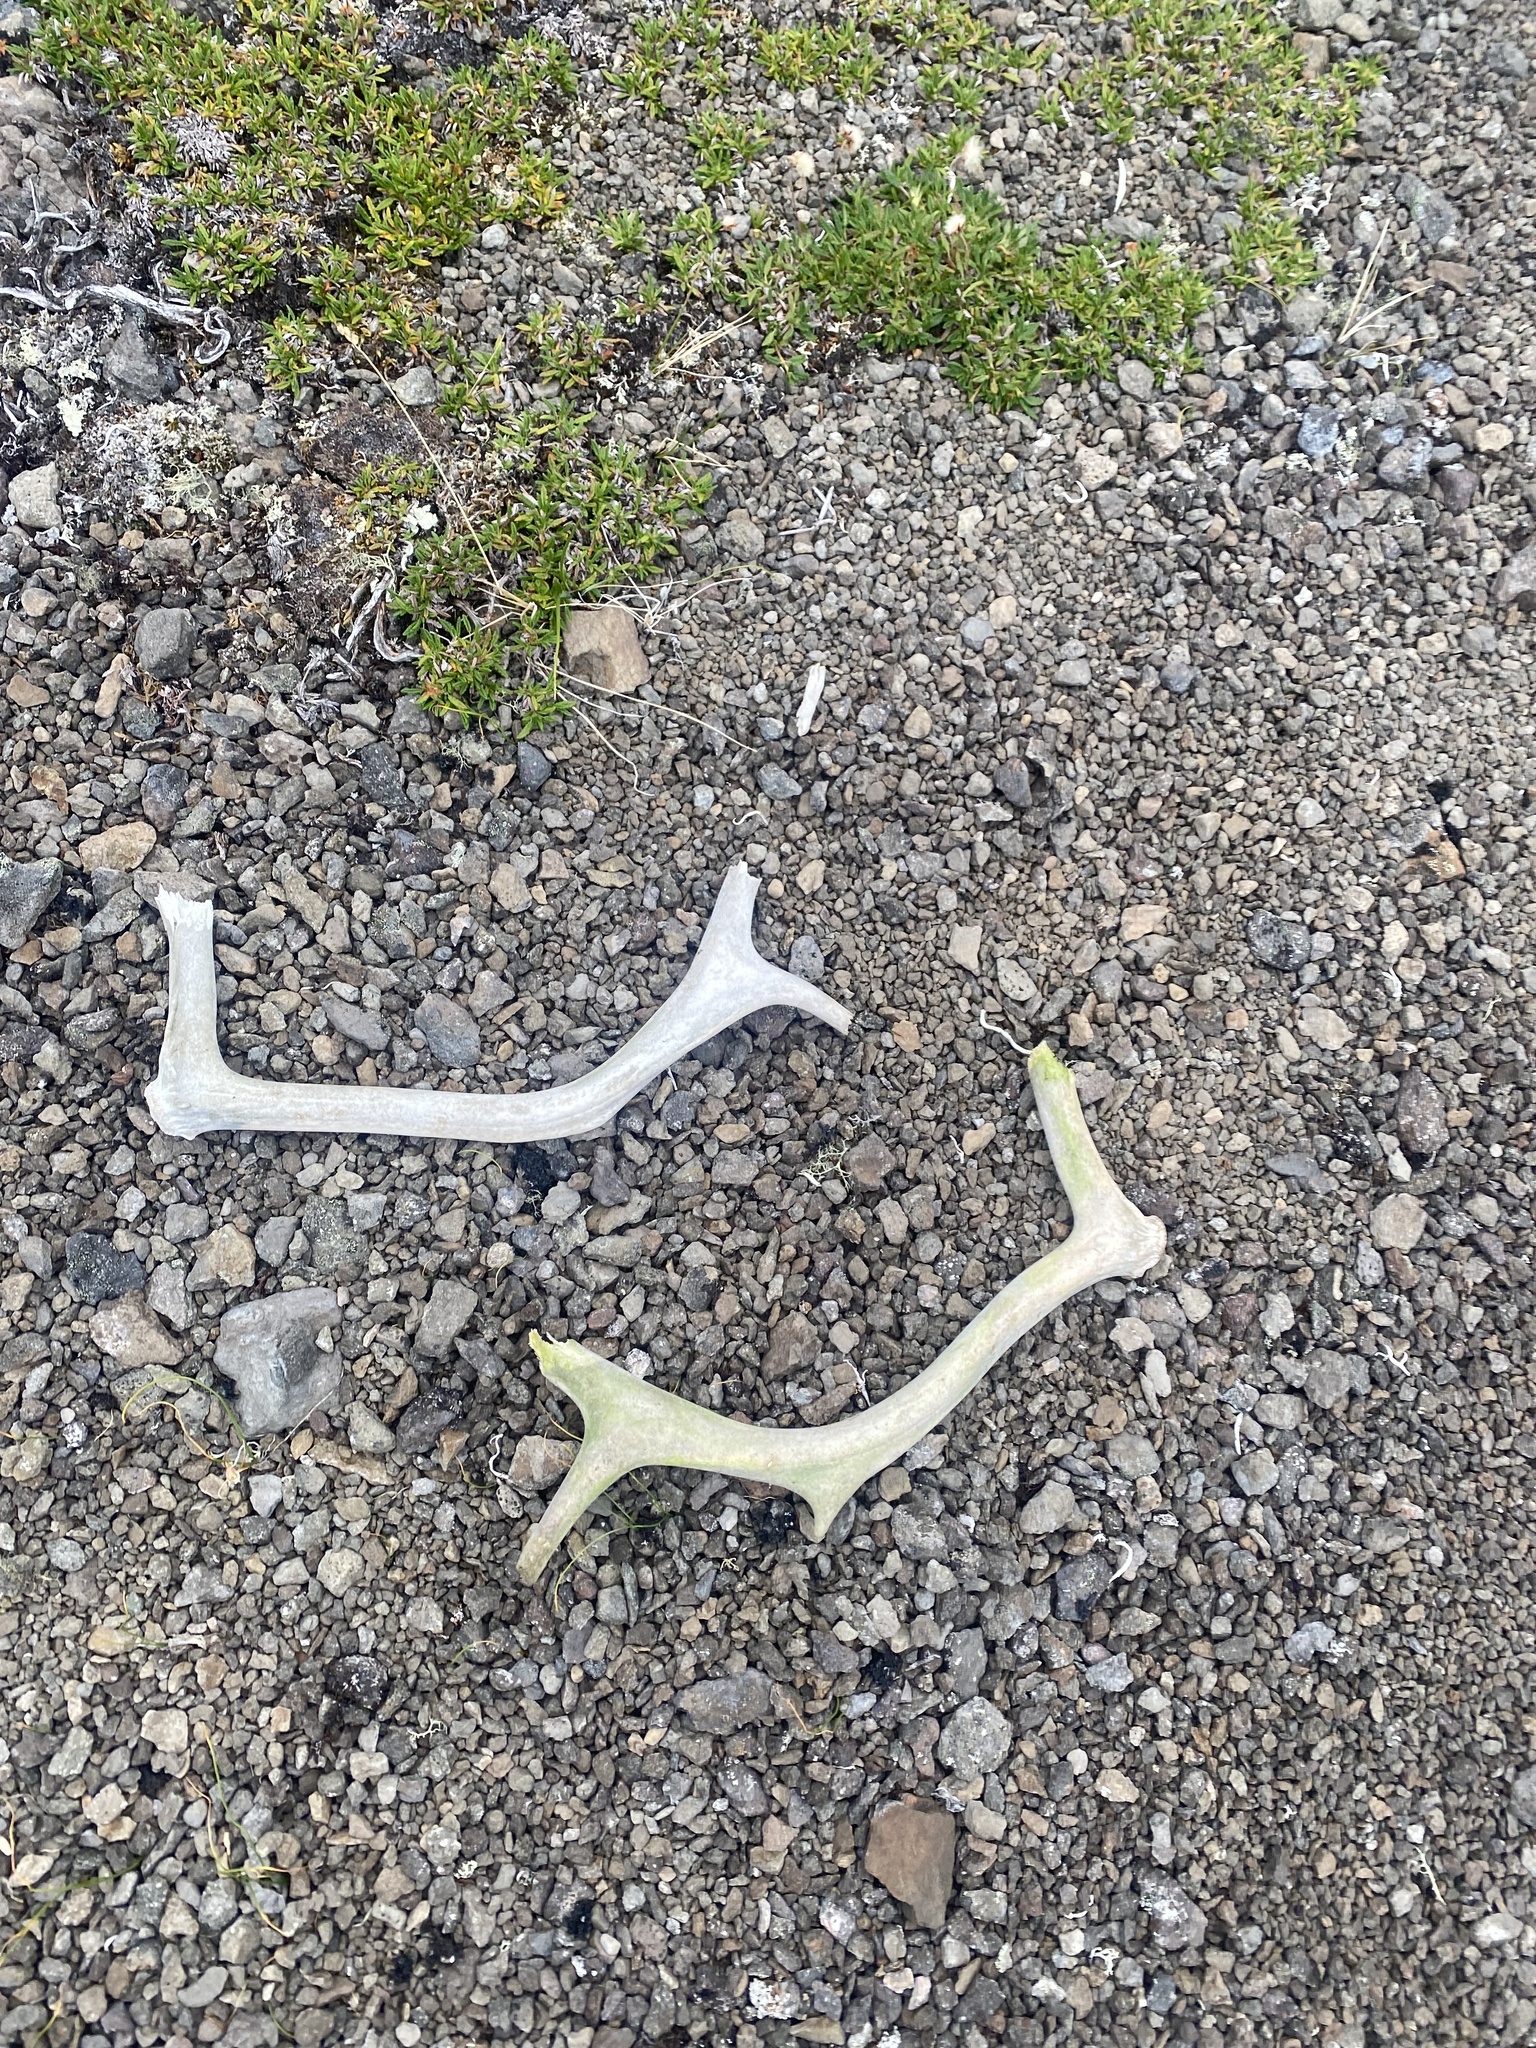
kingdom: Animalia
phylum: Chordata
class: Mammalia
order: Artiodactyla
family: Cervidae
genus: Rangifer
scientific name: Rangifer tarandus
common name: Reindeer
